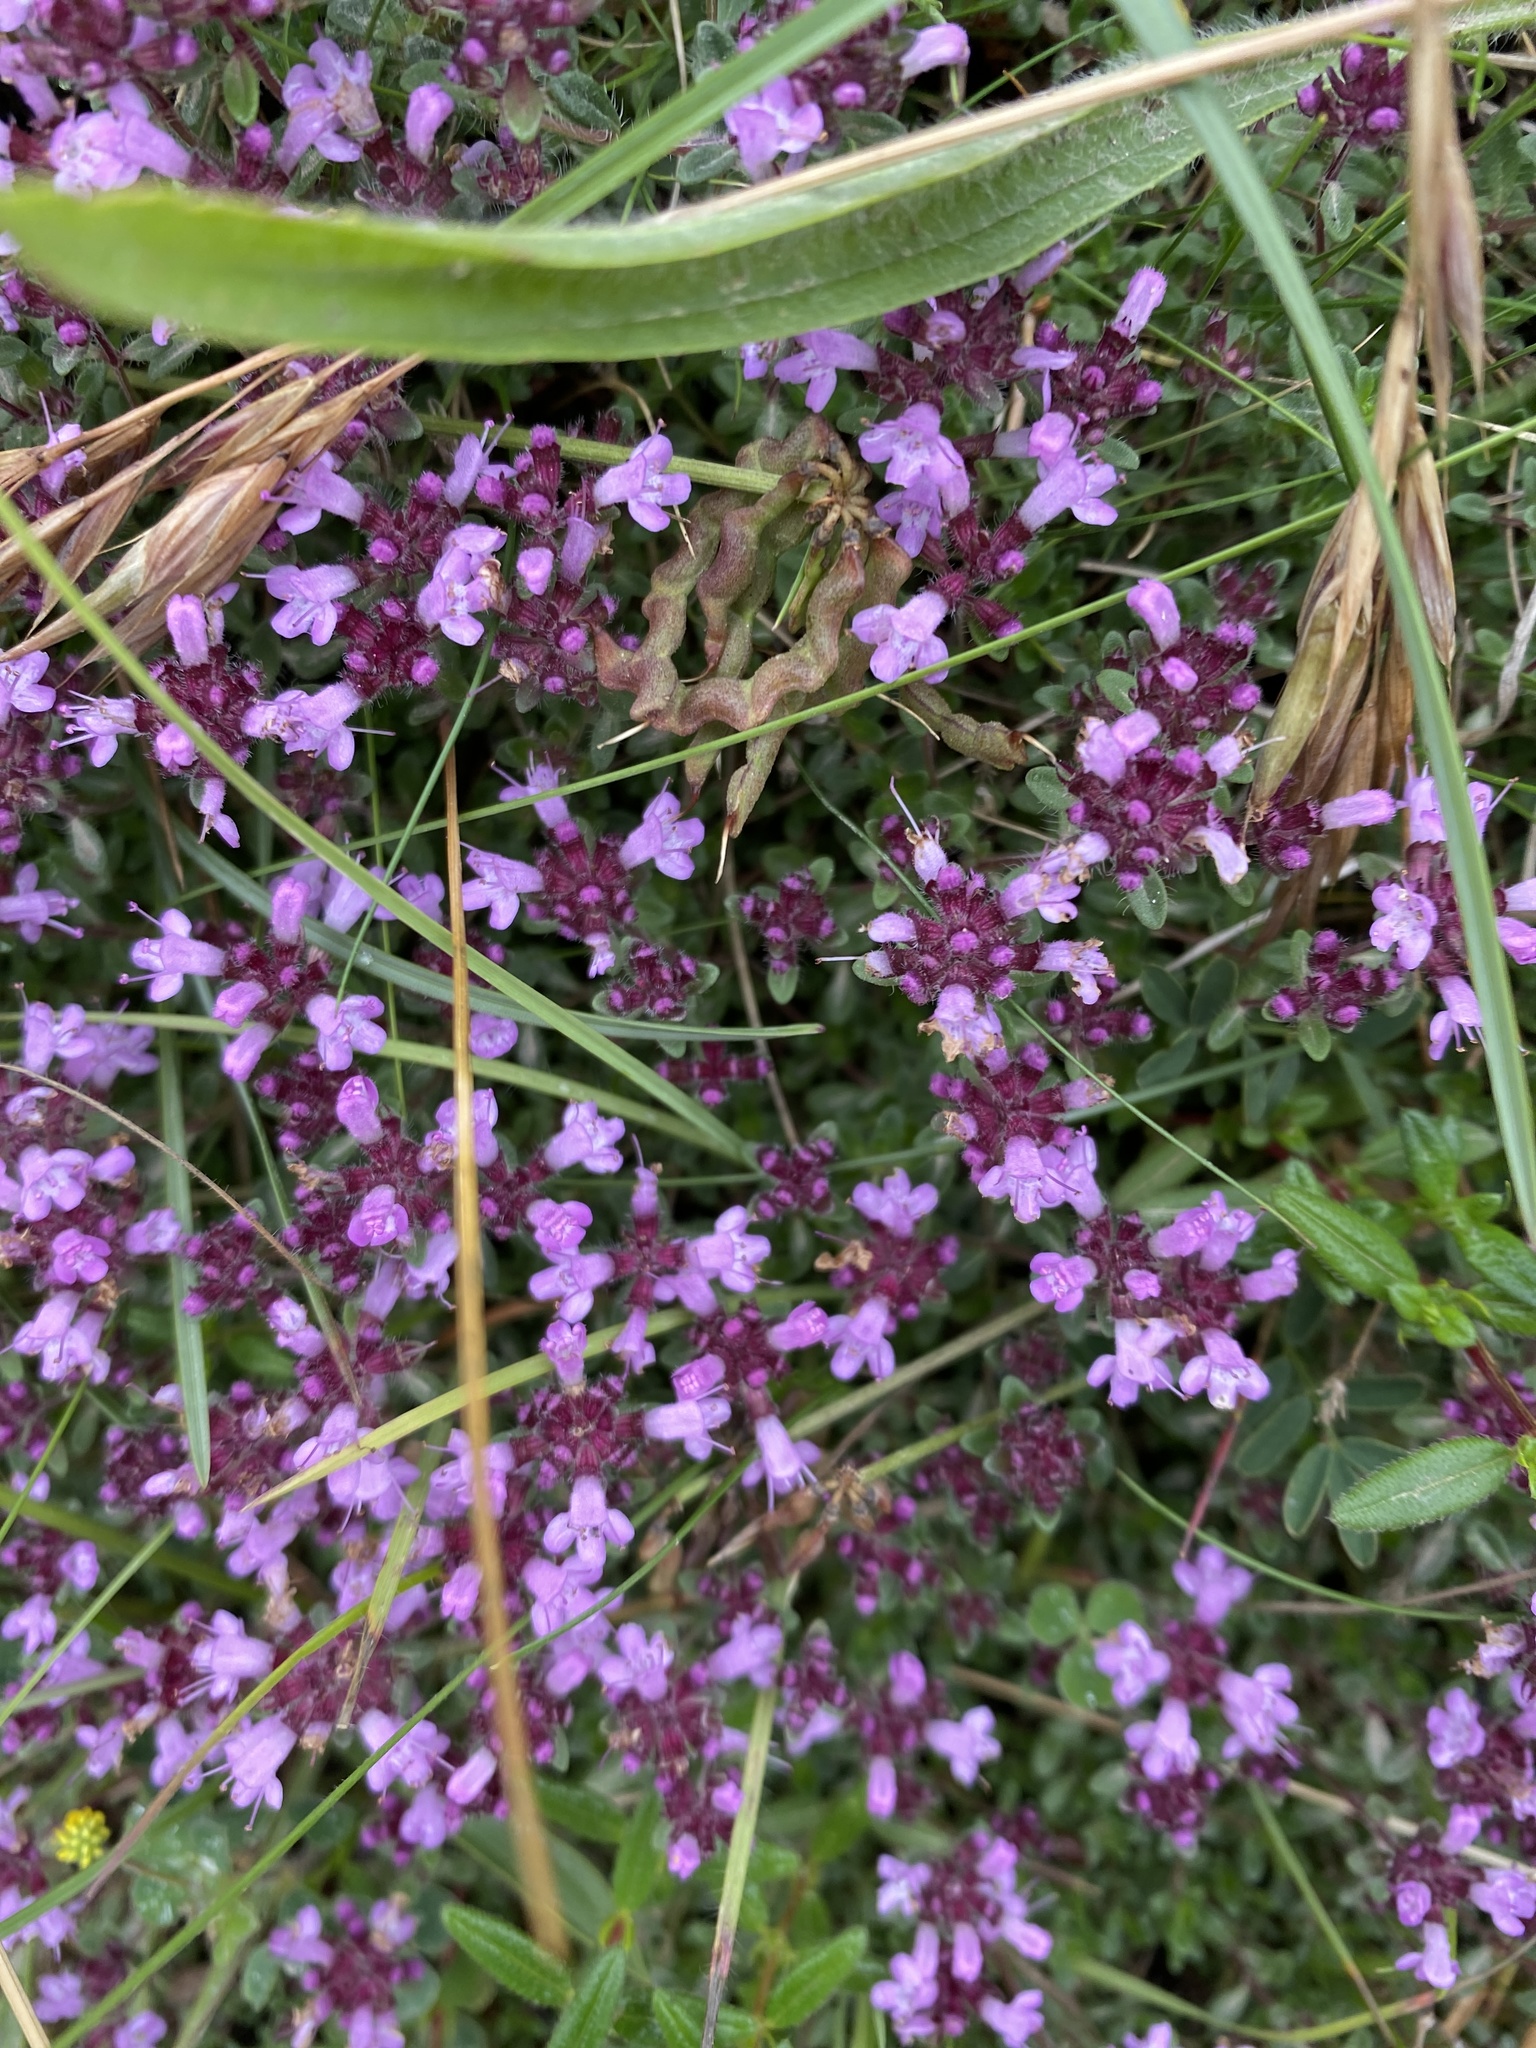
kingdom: Plantae
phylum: Tracheophyta
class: Magnoliopsida
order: Lamiales
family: Lamiaceae
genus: Thymus
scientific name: Thymus praecox
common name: Wild thyme
